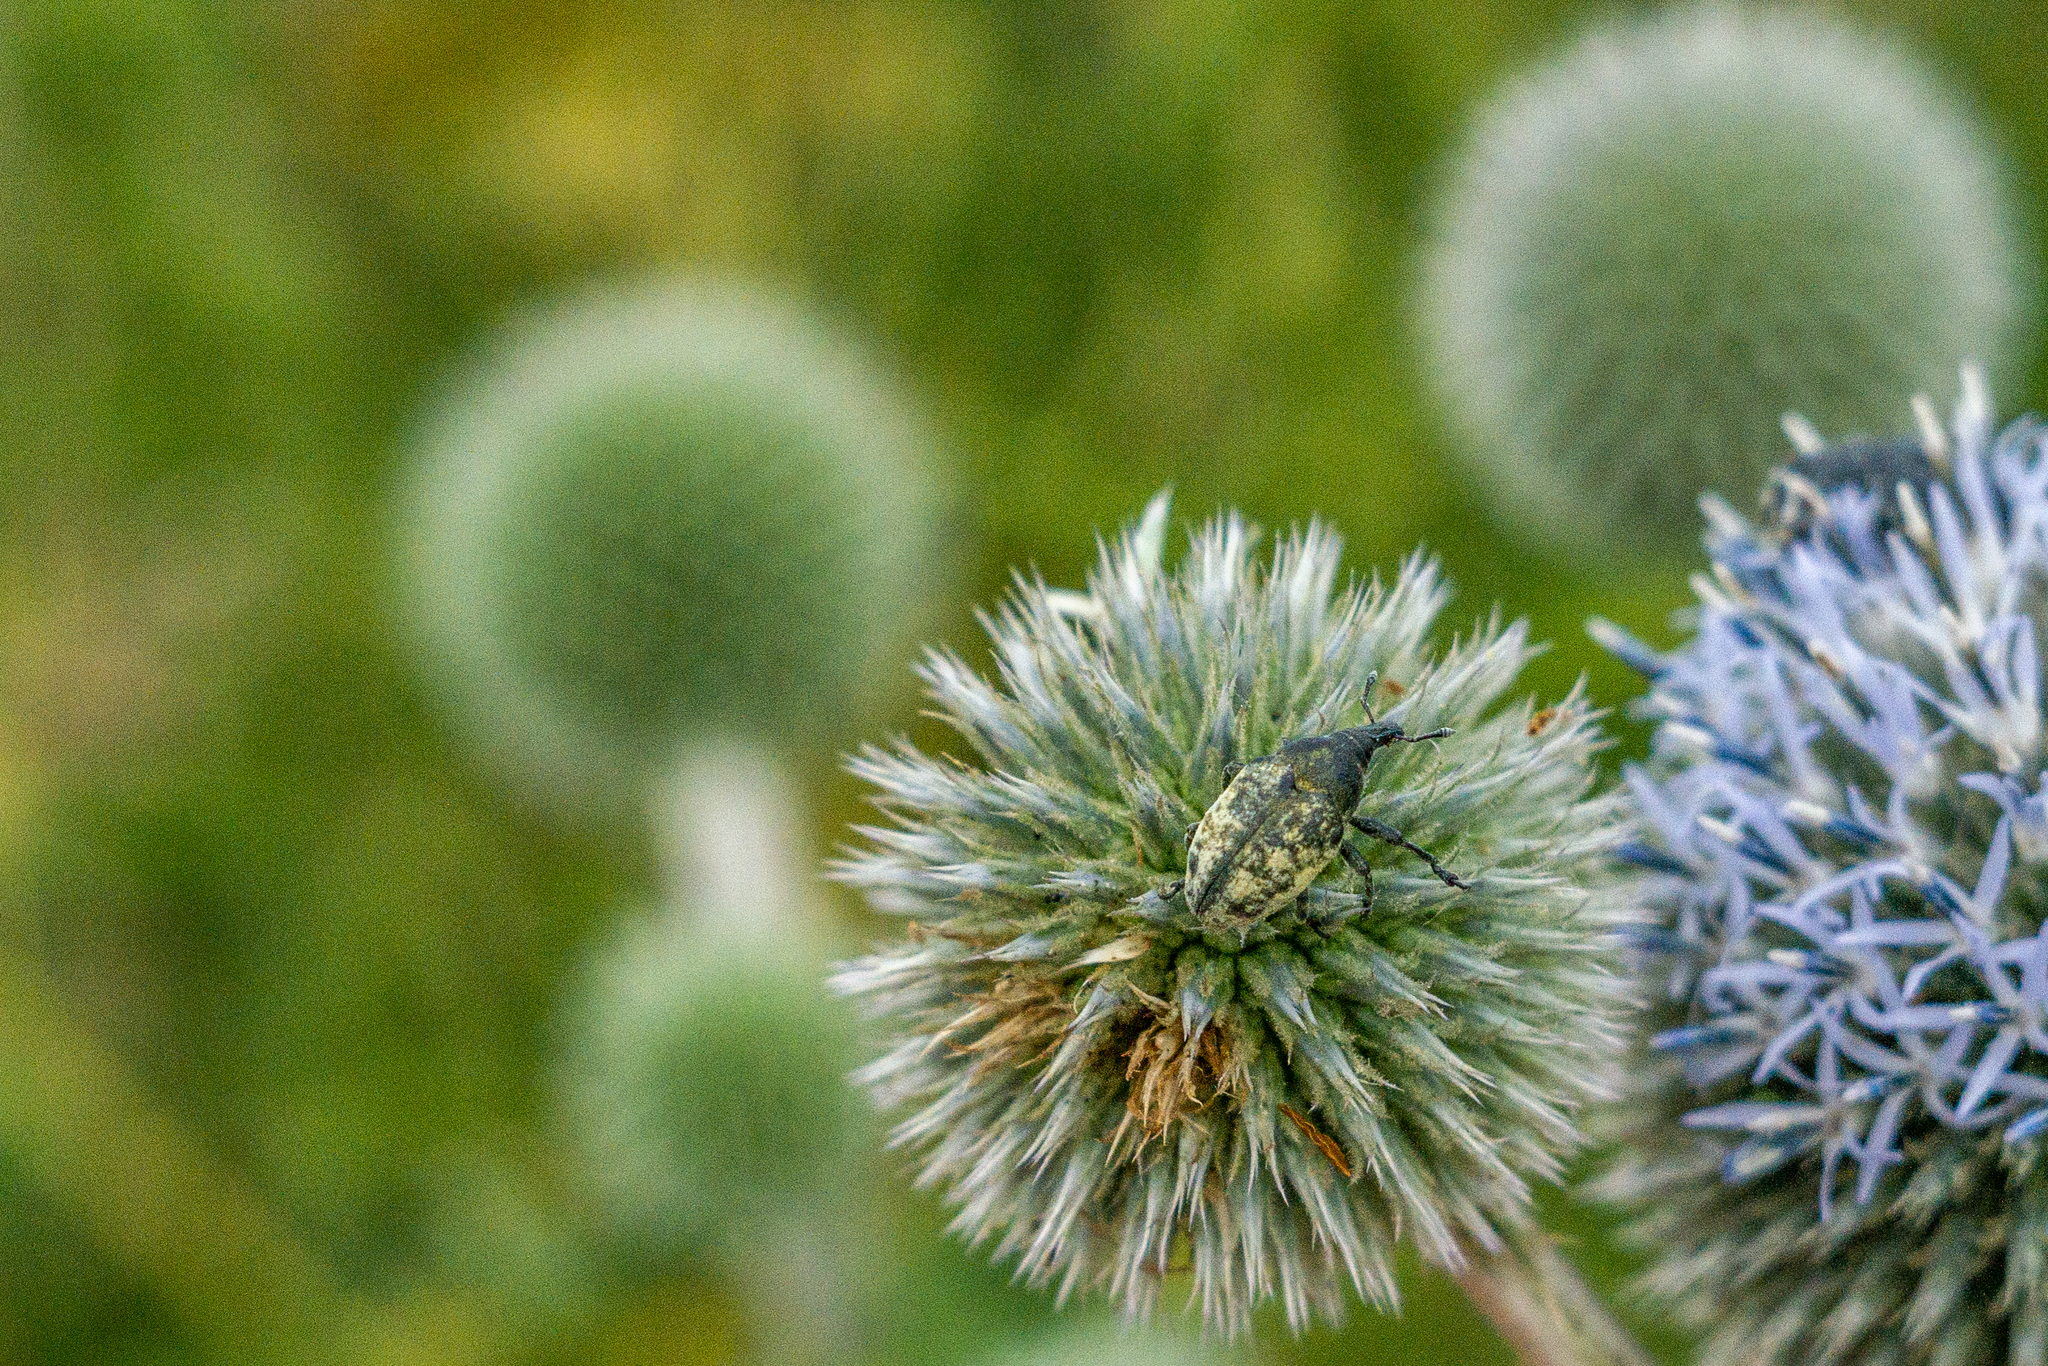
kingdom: Animalia
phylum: Arthropoda
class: Insecta
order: Coleoptera
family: Curculionidae
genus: Larinus
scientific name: Larinus vulpes
